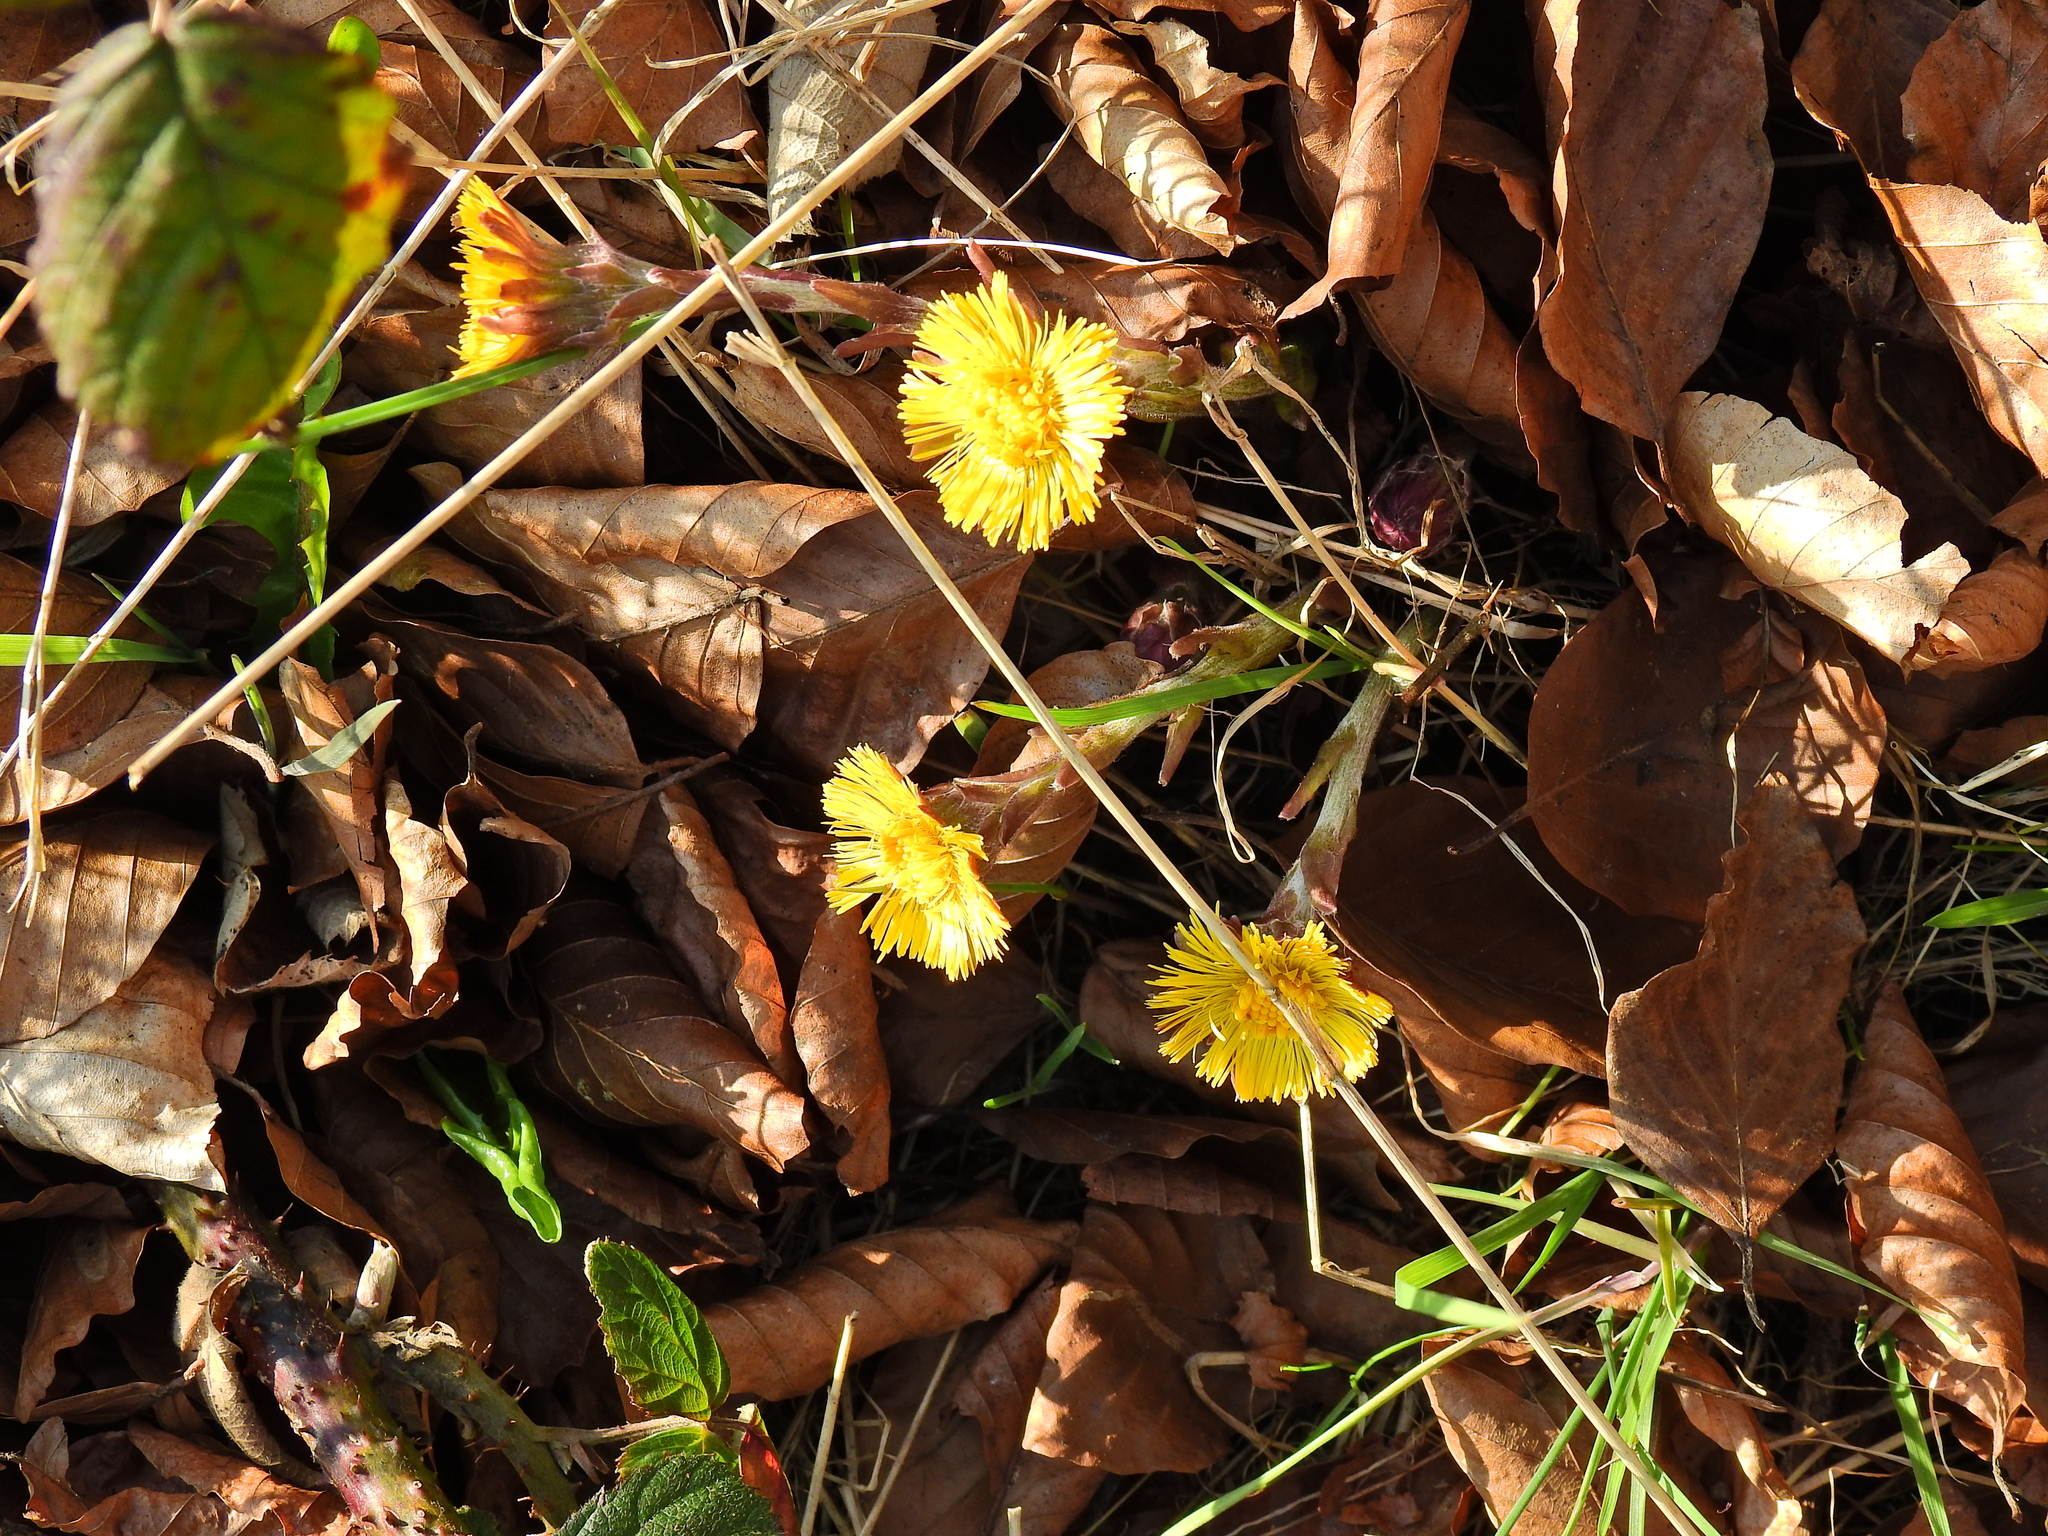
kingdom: Plantae
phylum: Tracheophyta
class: Magnoliopsida
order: Asterales
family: Asteraceae
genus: Tussilago
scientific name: Tussilago farfara
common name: Coltsfoot
